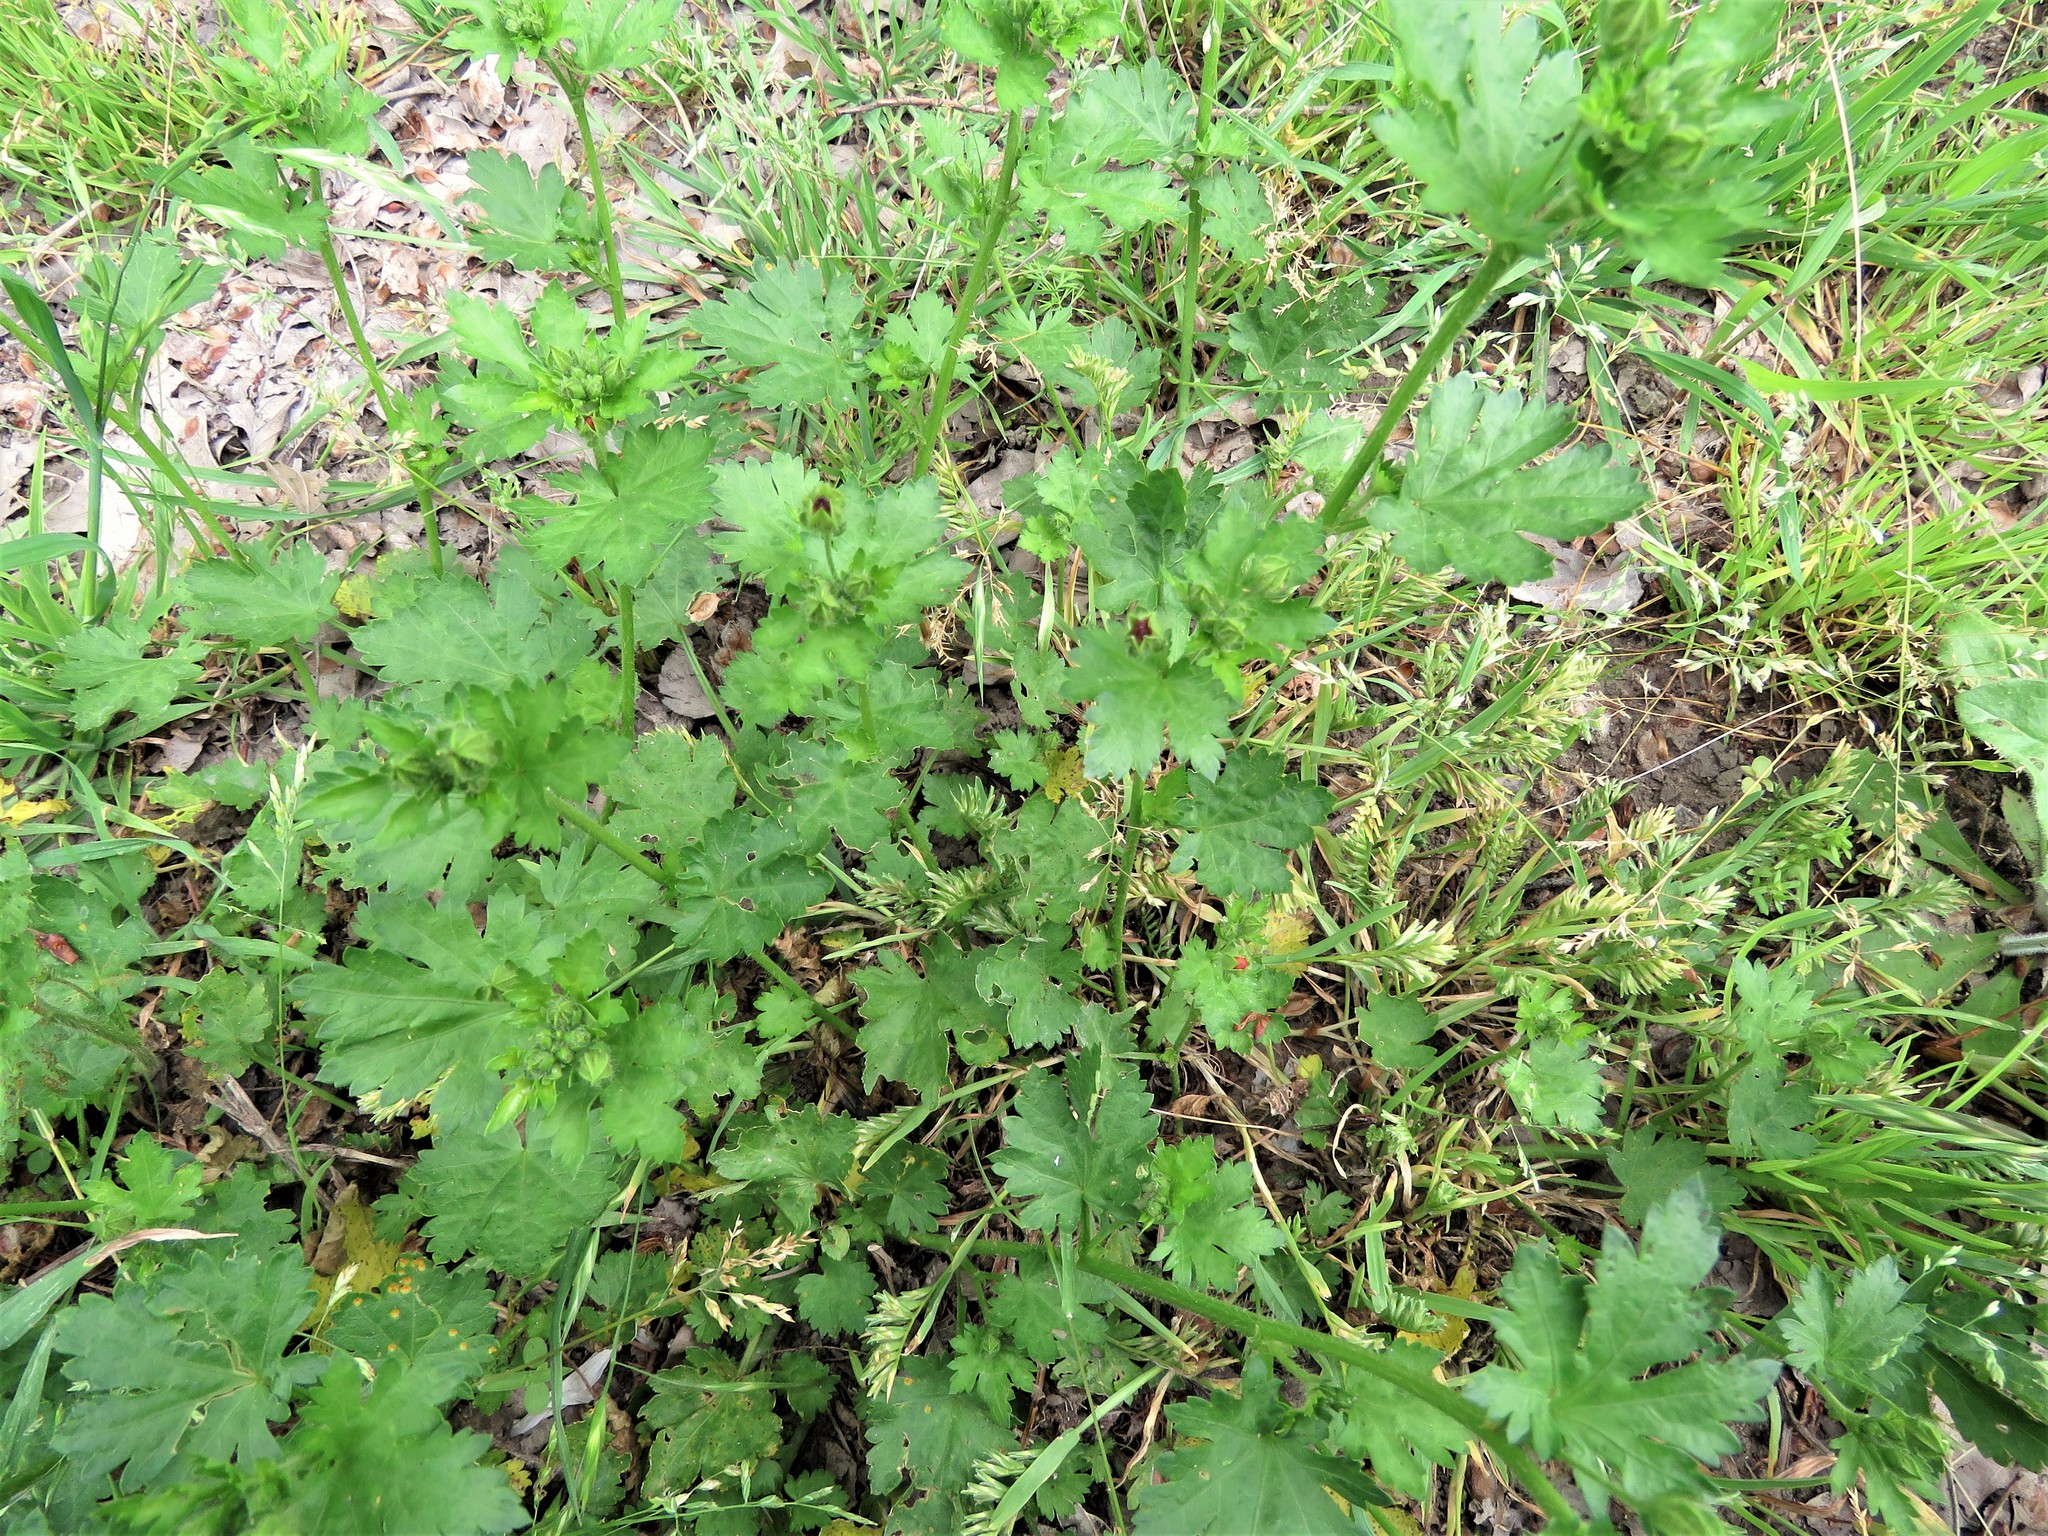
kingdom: Plantae
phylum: Tracheophyta
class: Magnoliopsida
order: Malvales
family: Malvaceae
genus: Modiola
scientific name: Modiola caroliniana
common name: Carolina bristlemallow
